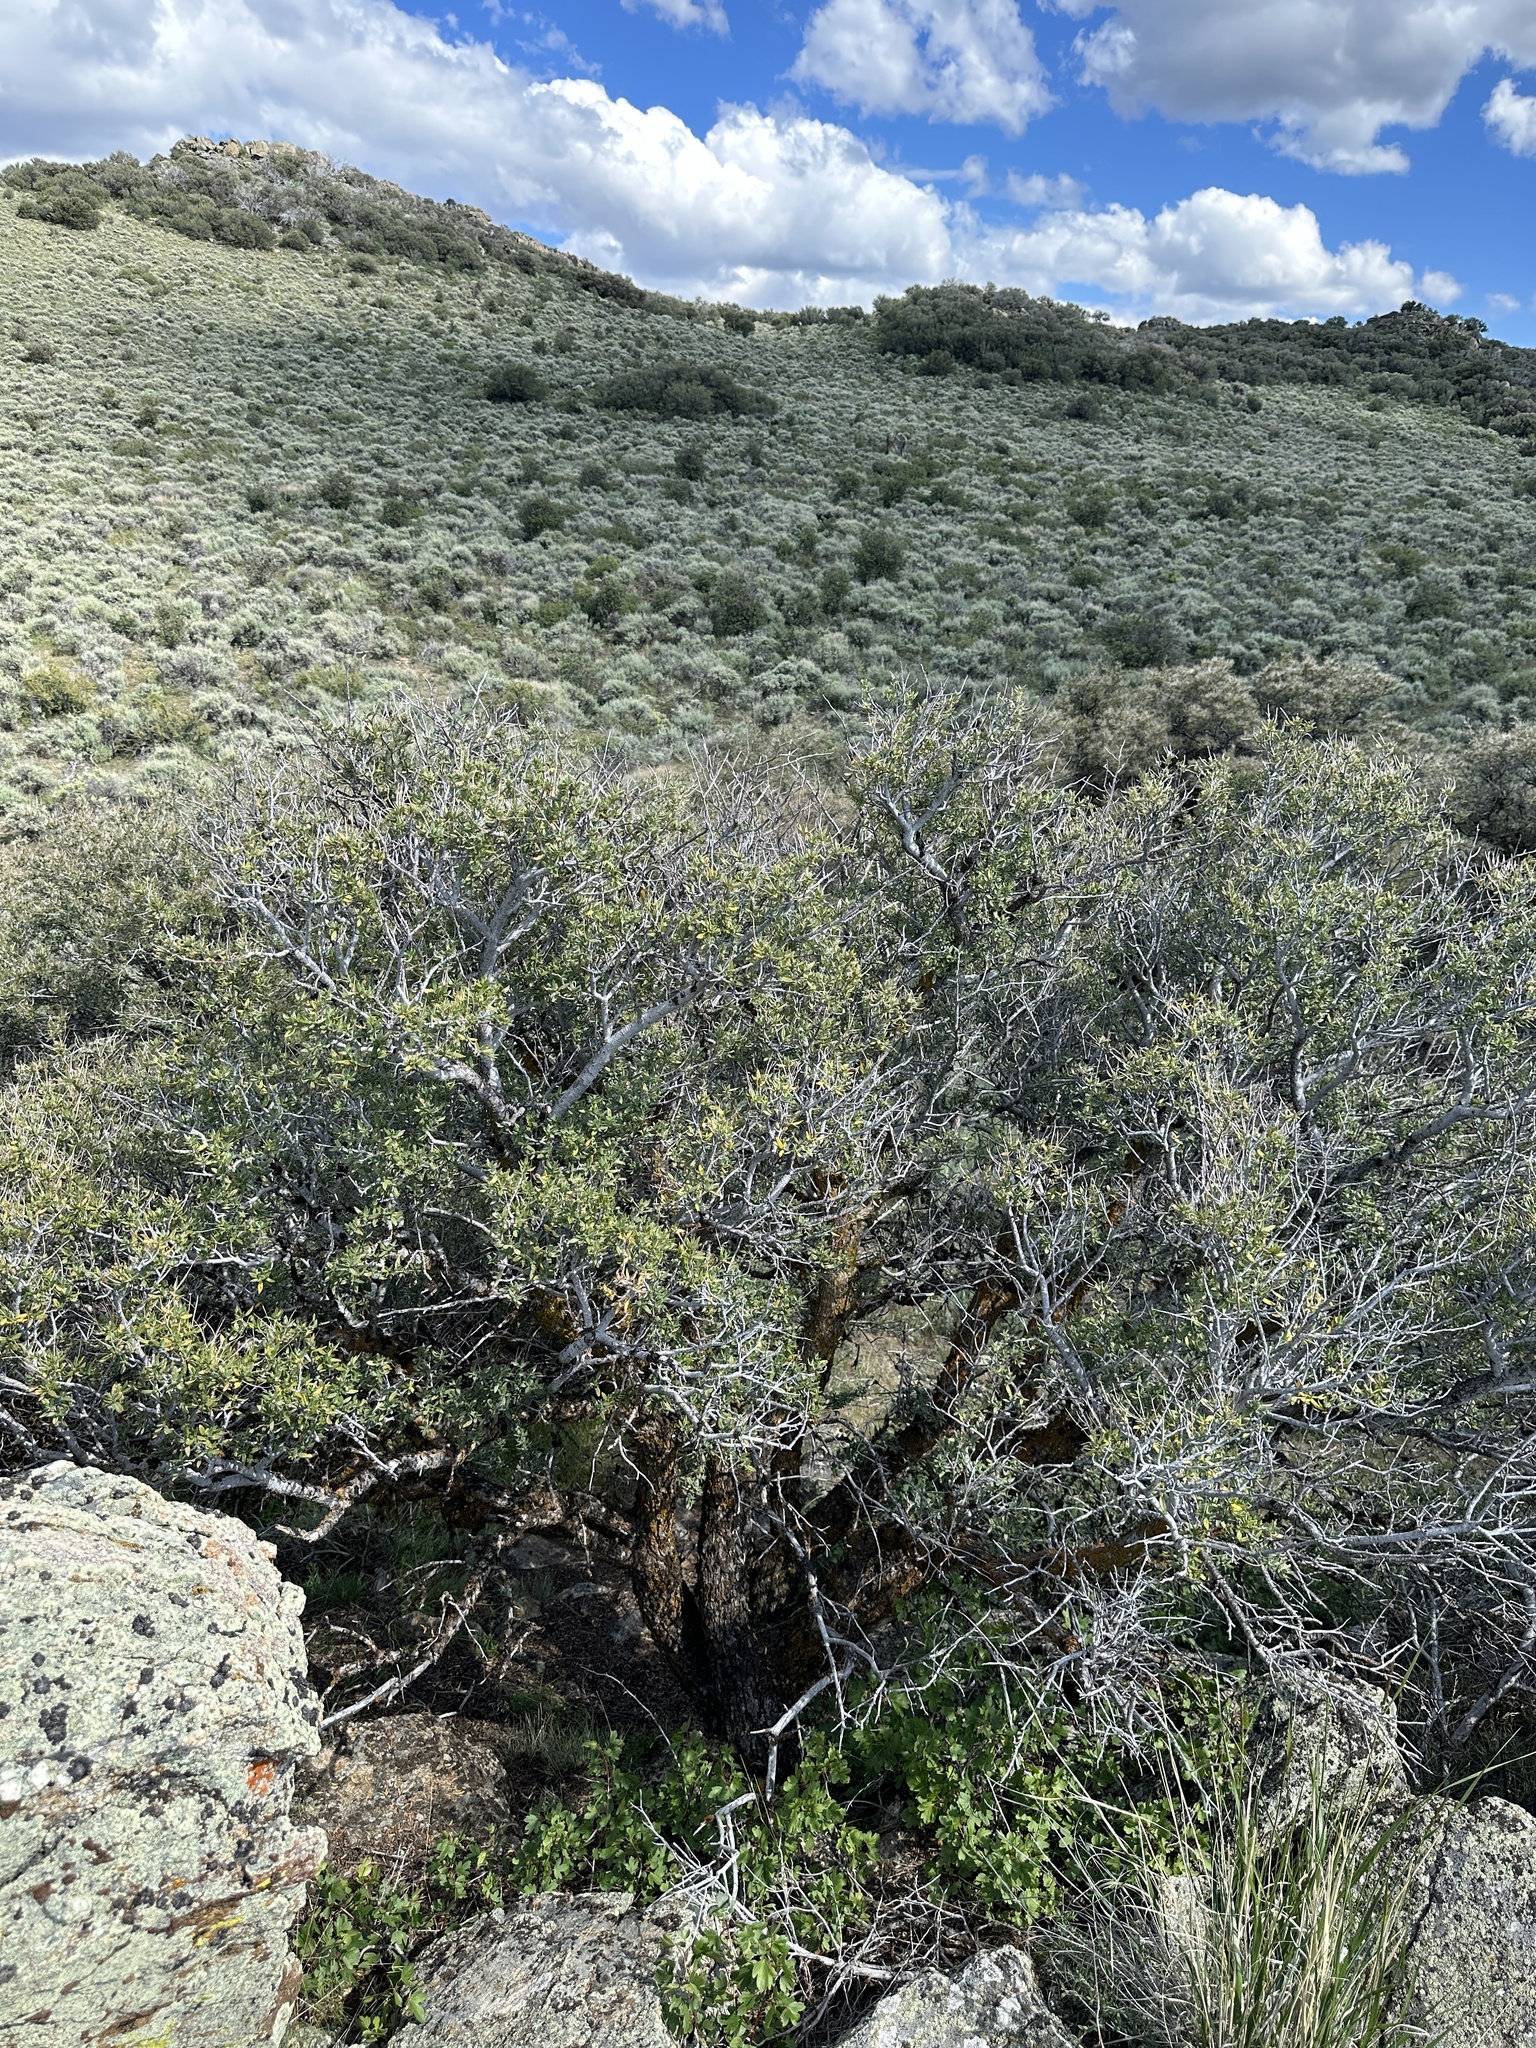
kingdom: Plantae
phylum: Tracheophyta
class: Magnoliopsida
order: Rosales
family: Rosaceae
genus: Cercocarpus
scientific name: Cercocarpus ledifolius
